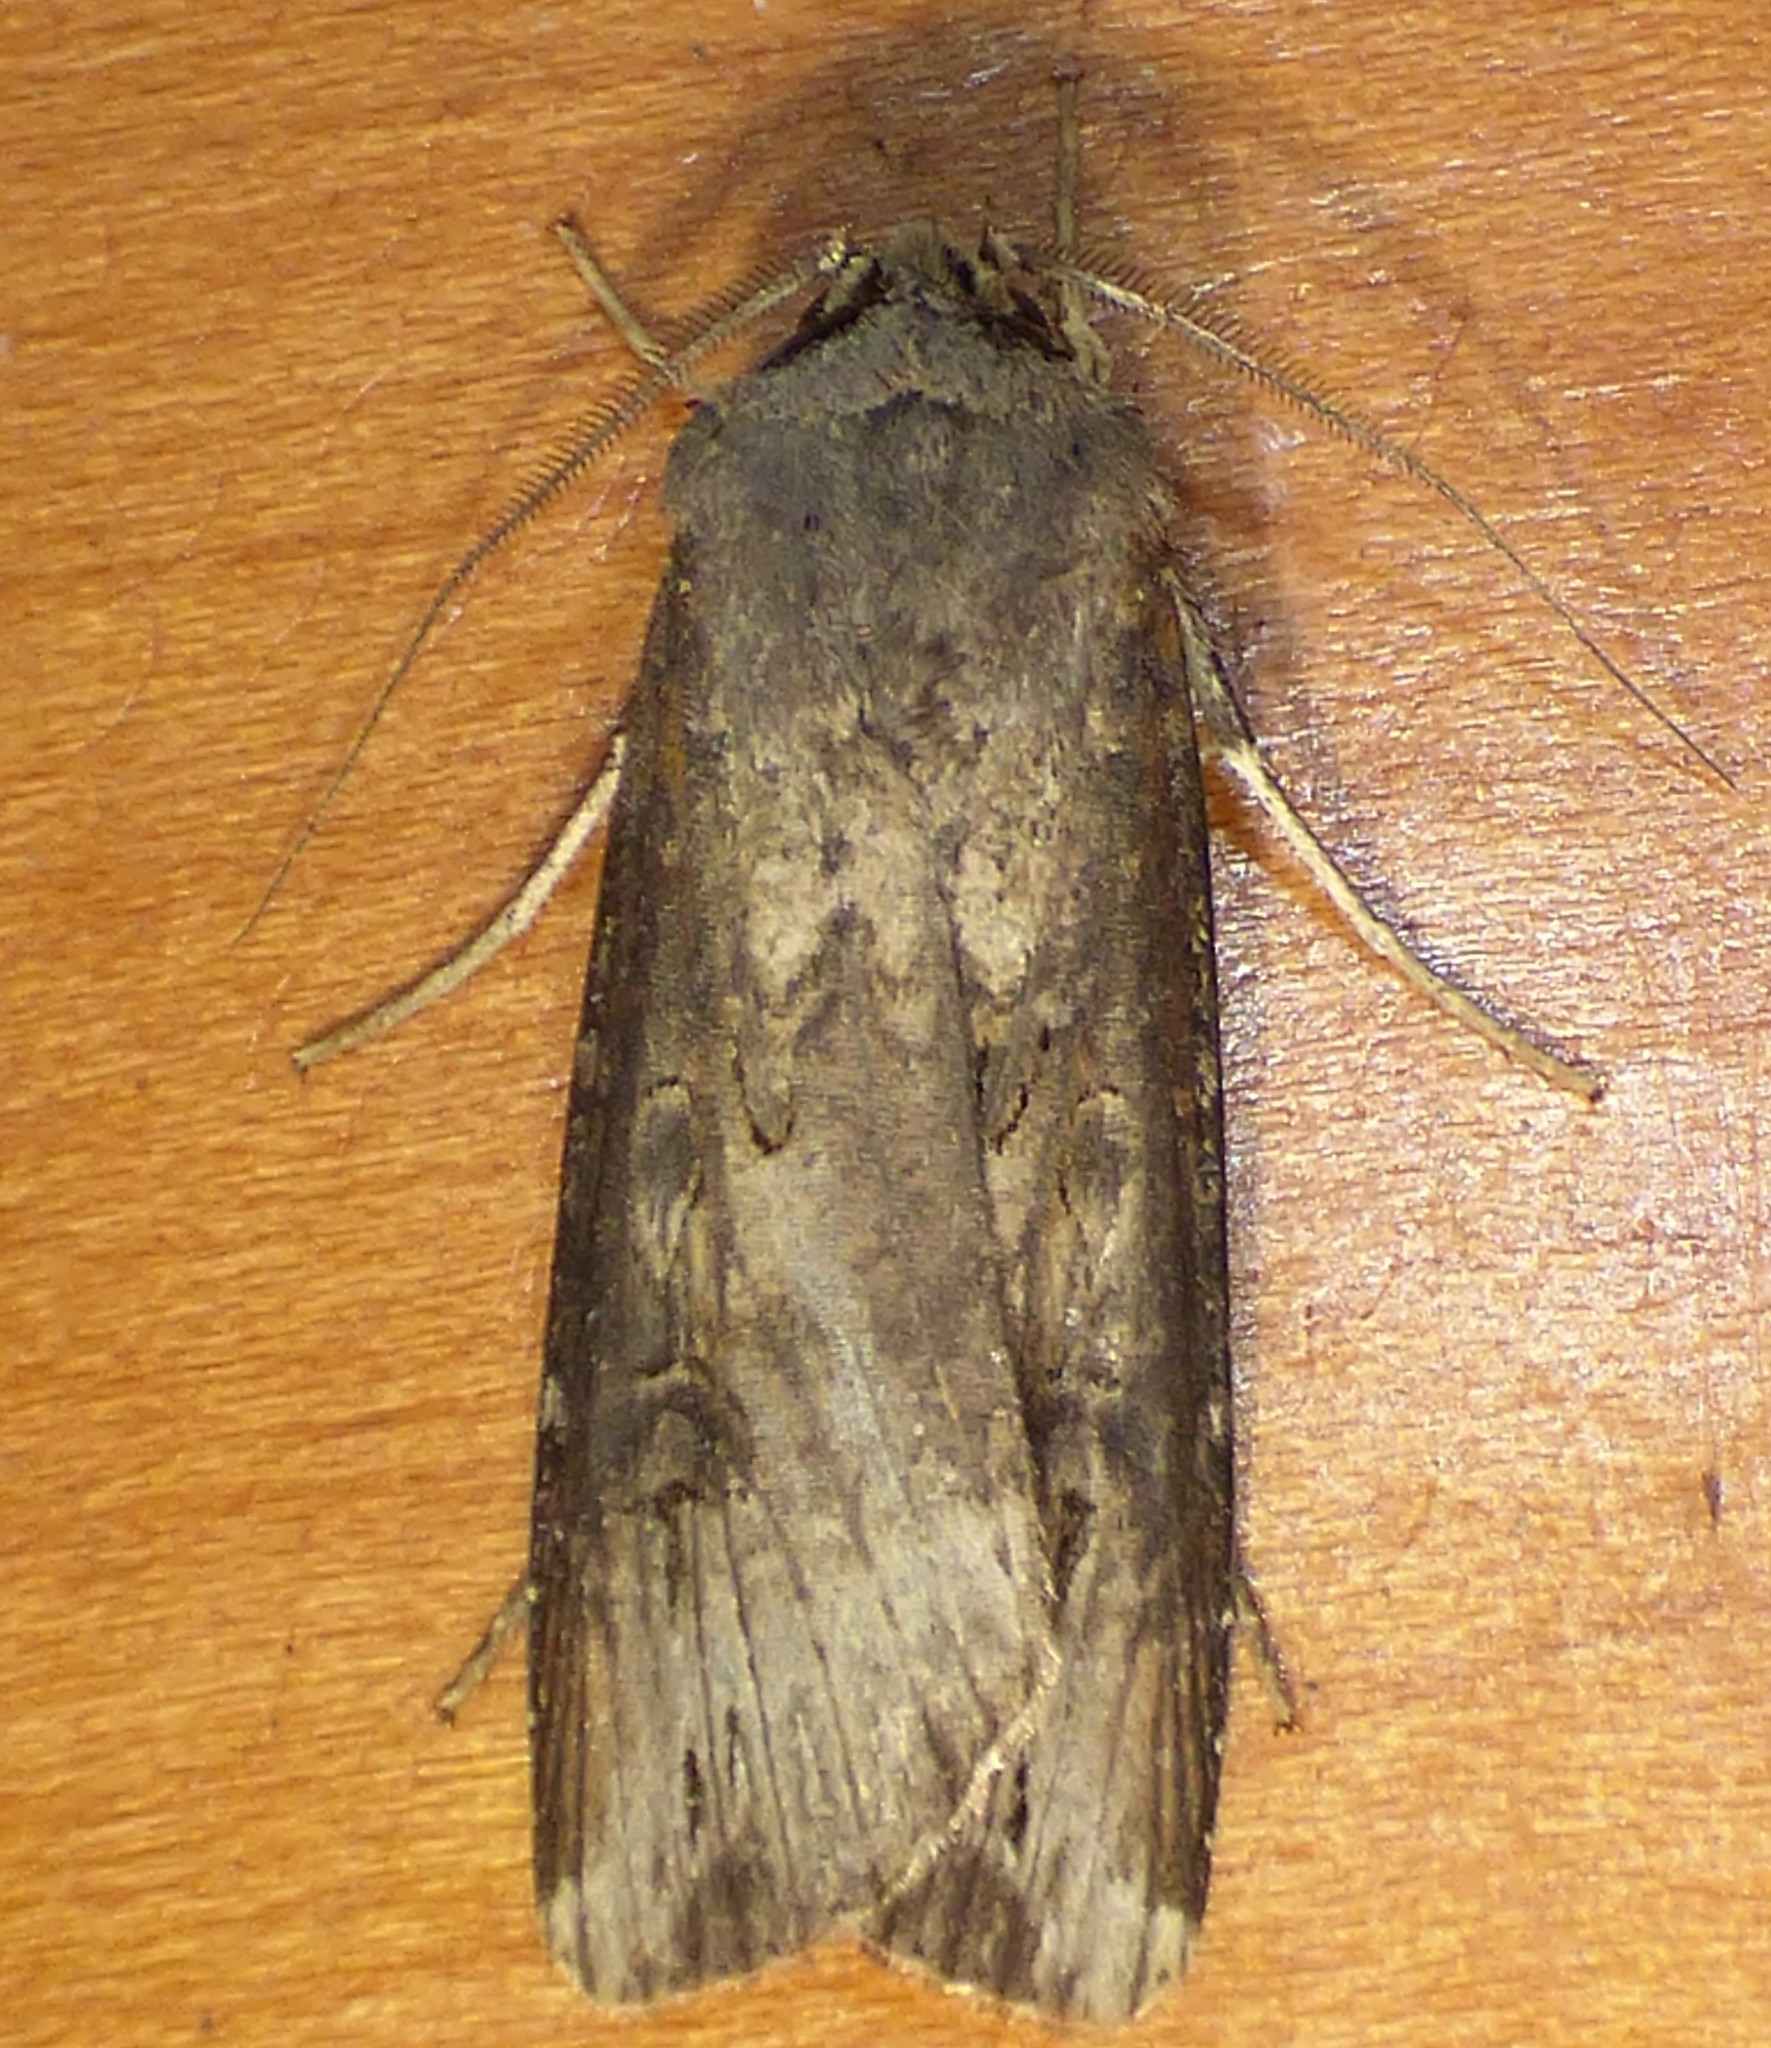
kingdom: Animalia
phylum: Arthropoda
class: Insecta
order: Lepidoptera
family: Noctuidae
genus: Agrotis
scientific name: Agrotis ipsilon
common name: Dark sword-grass
